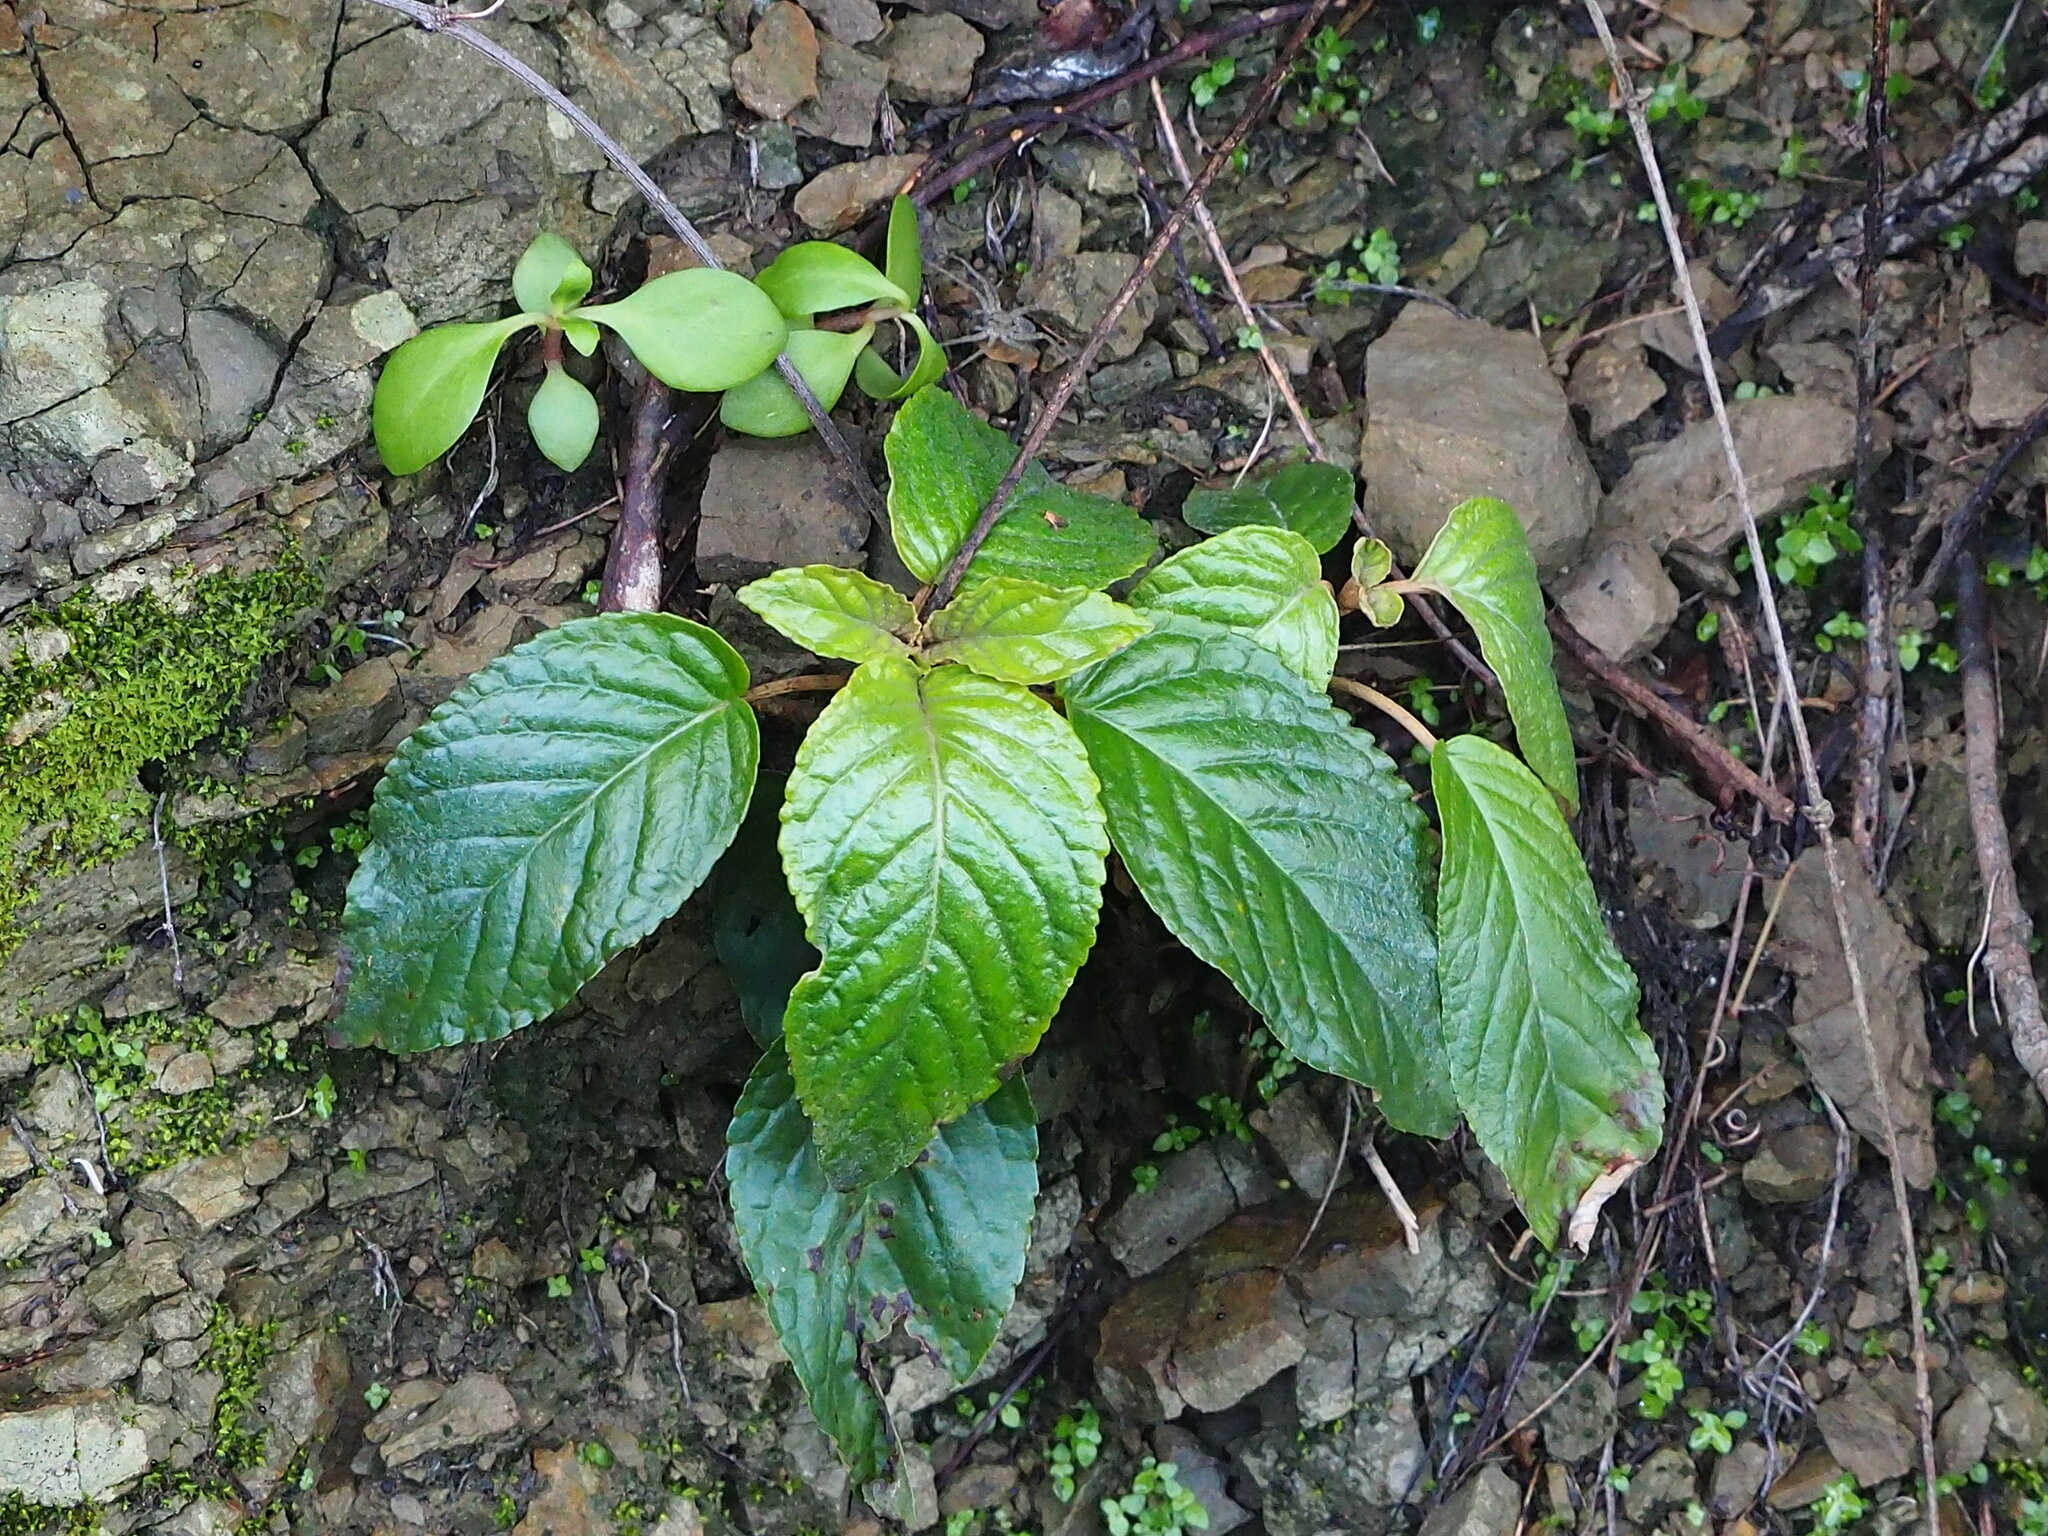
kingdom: Plantae
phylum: Tracheophyta
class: Magnoliopsida
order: Lamiales
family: Gesneriaceae
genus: Paraboea
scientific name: Paraboea swinhoei
